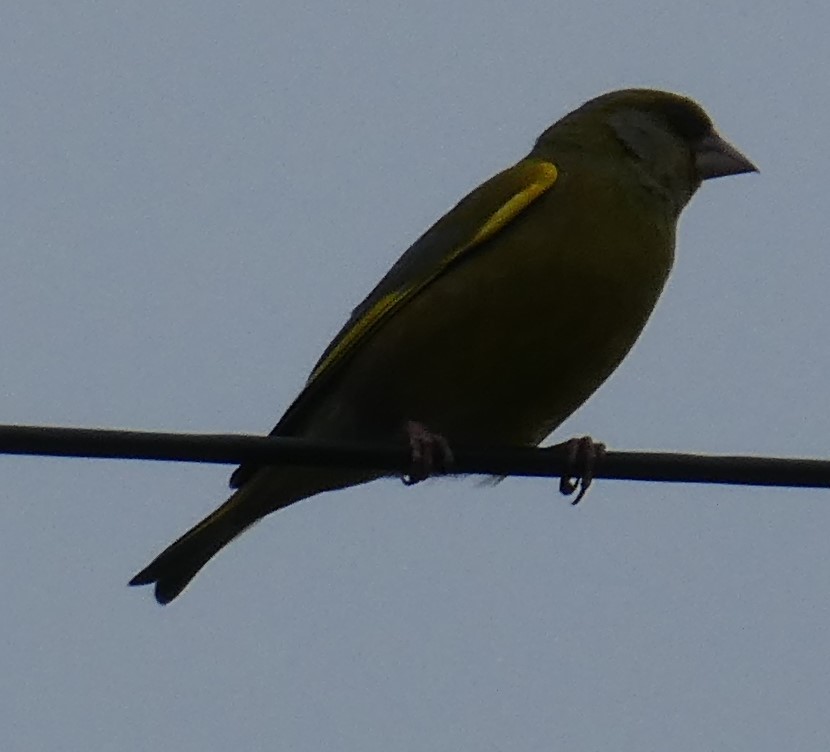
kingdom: Plantae
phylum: Tracheophyta
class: Liliopsida
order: Poales
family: Poaceae
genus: Chloris
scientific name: Chloris chloris
